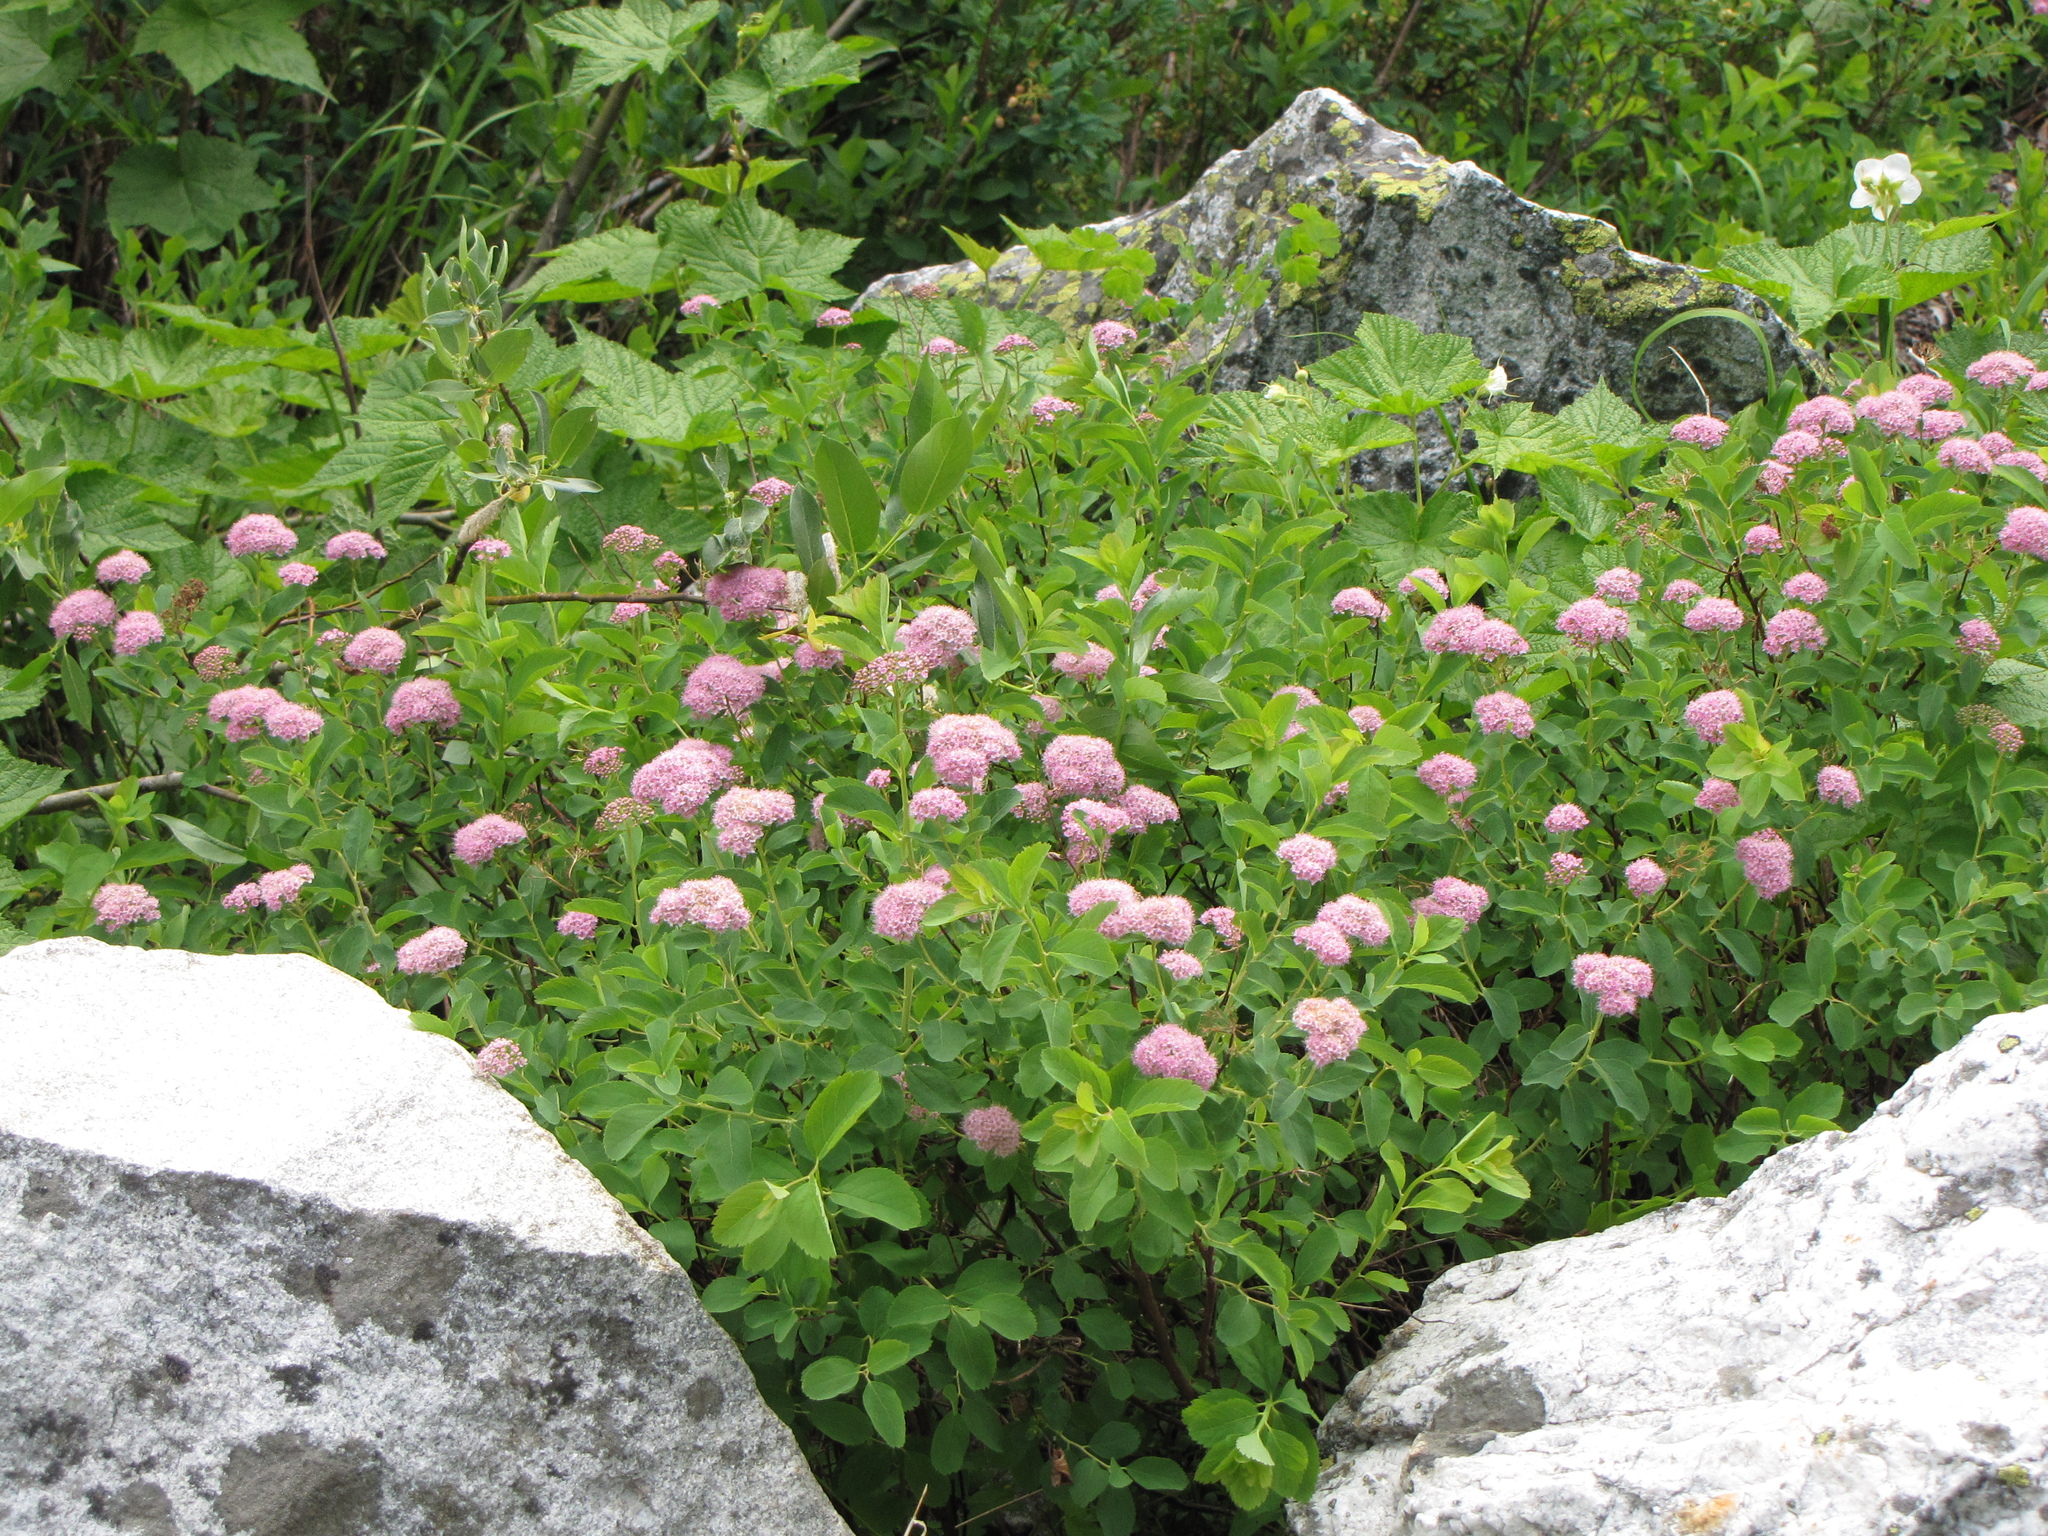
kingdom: Plantae
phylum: Tracheophyta
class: Magnoliopsida
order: Rosales
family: Rosaceae
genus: Spiraea
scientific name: Spiraea splendens
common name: Subalpine meadowsweet
